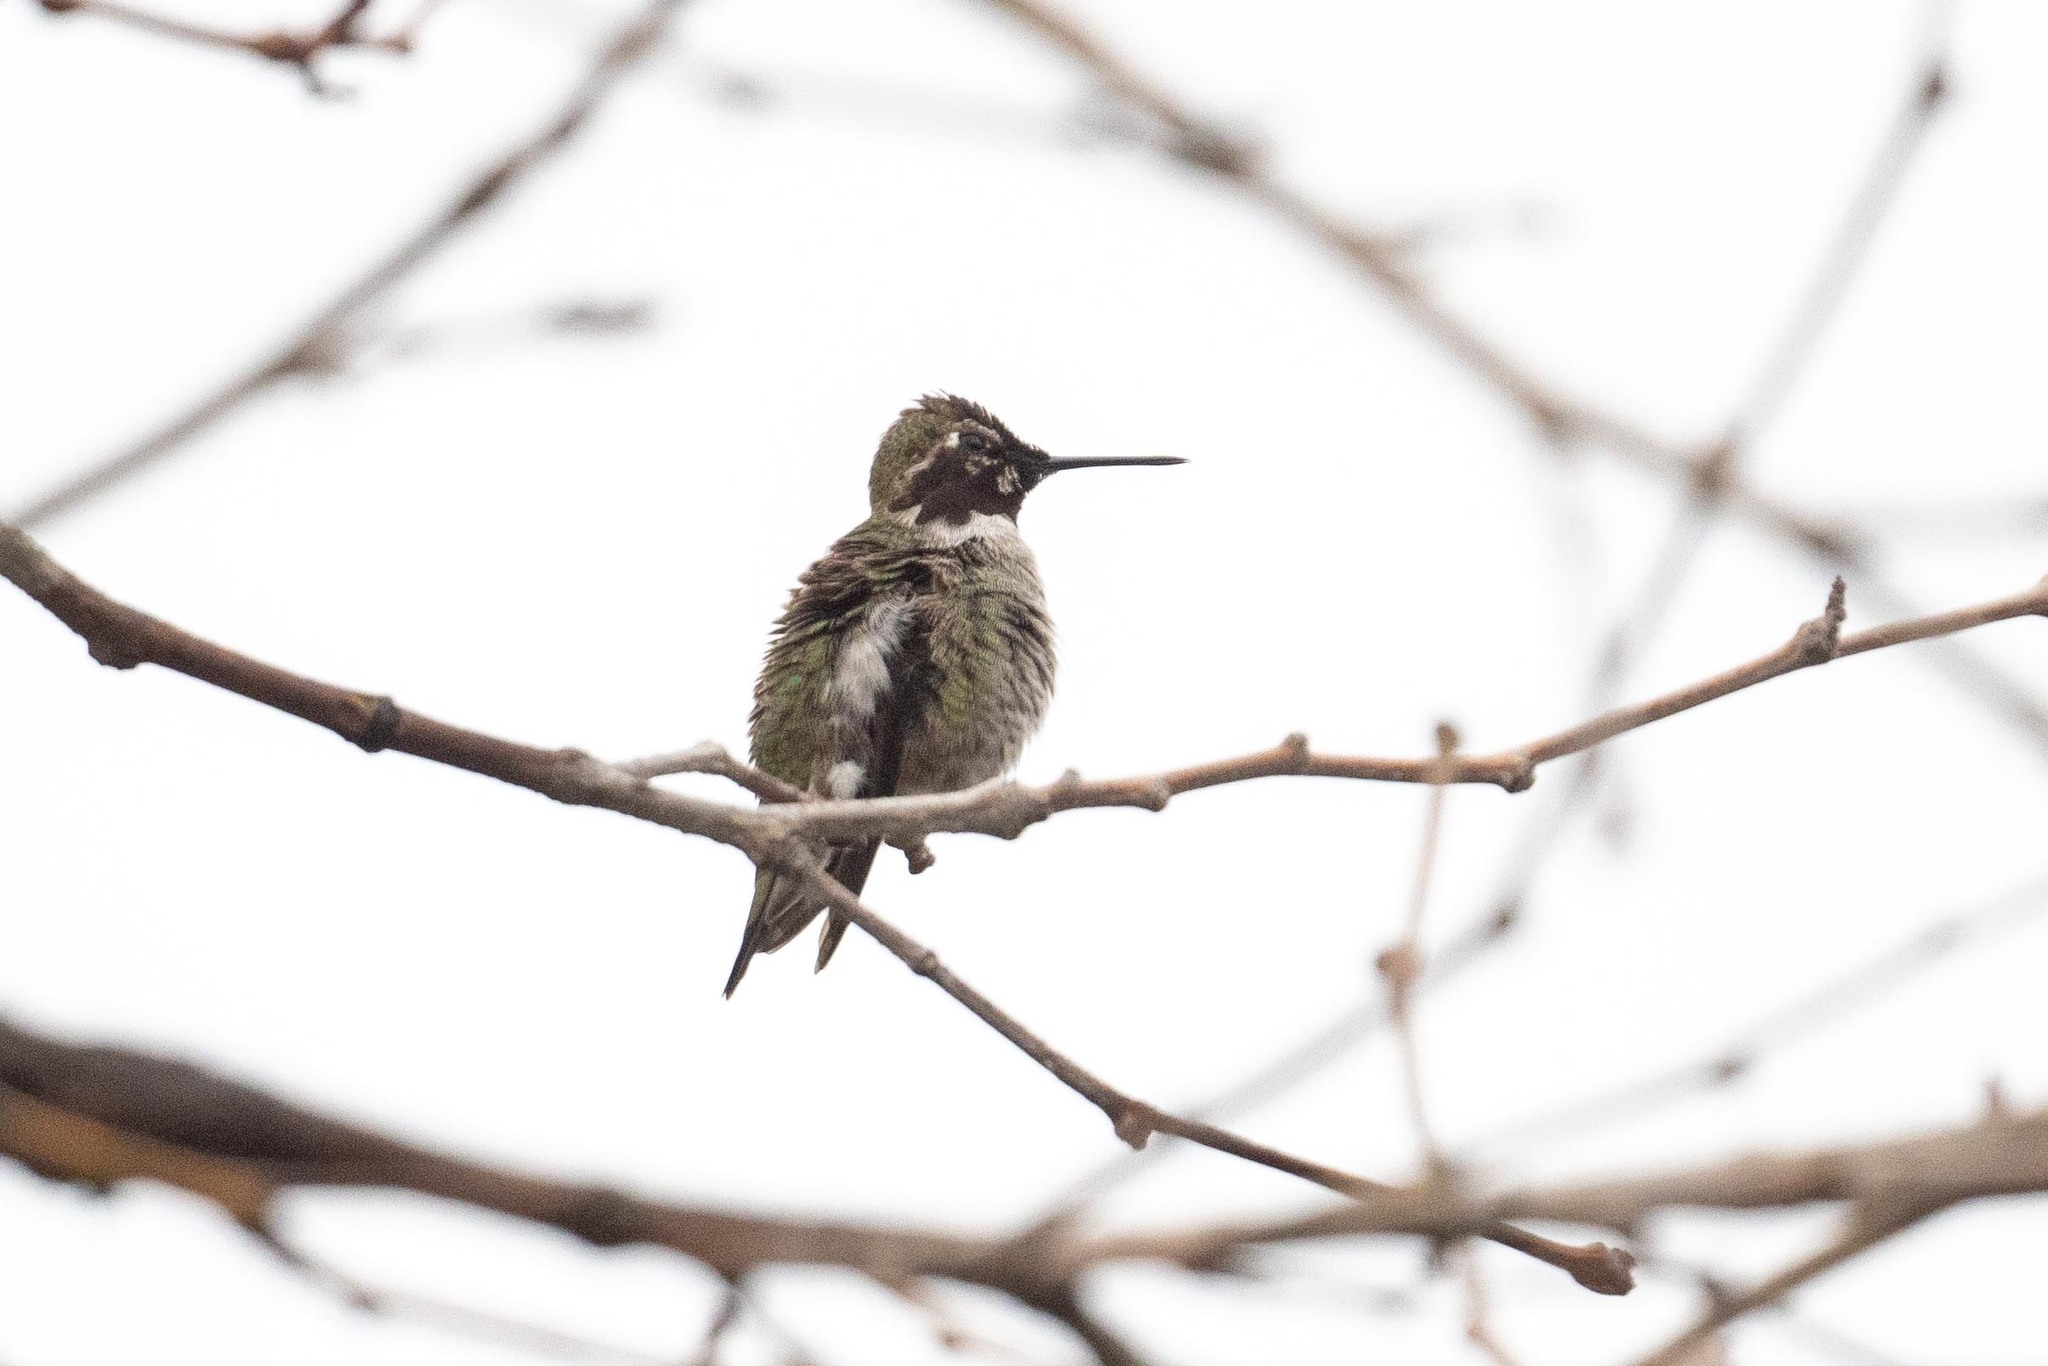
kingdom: Animalia
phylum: Chordata
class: Aves
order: Apodiformes
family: Trochilidae
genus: Calypte
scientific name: Calypte anna
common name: Anna's hummingbird
